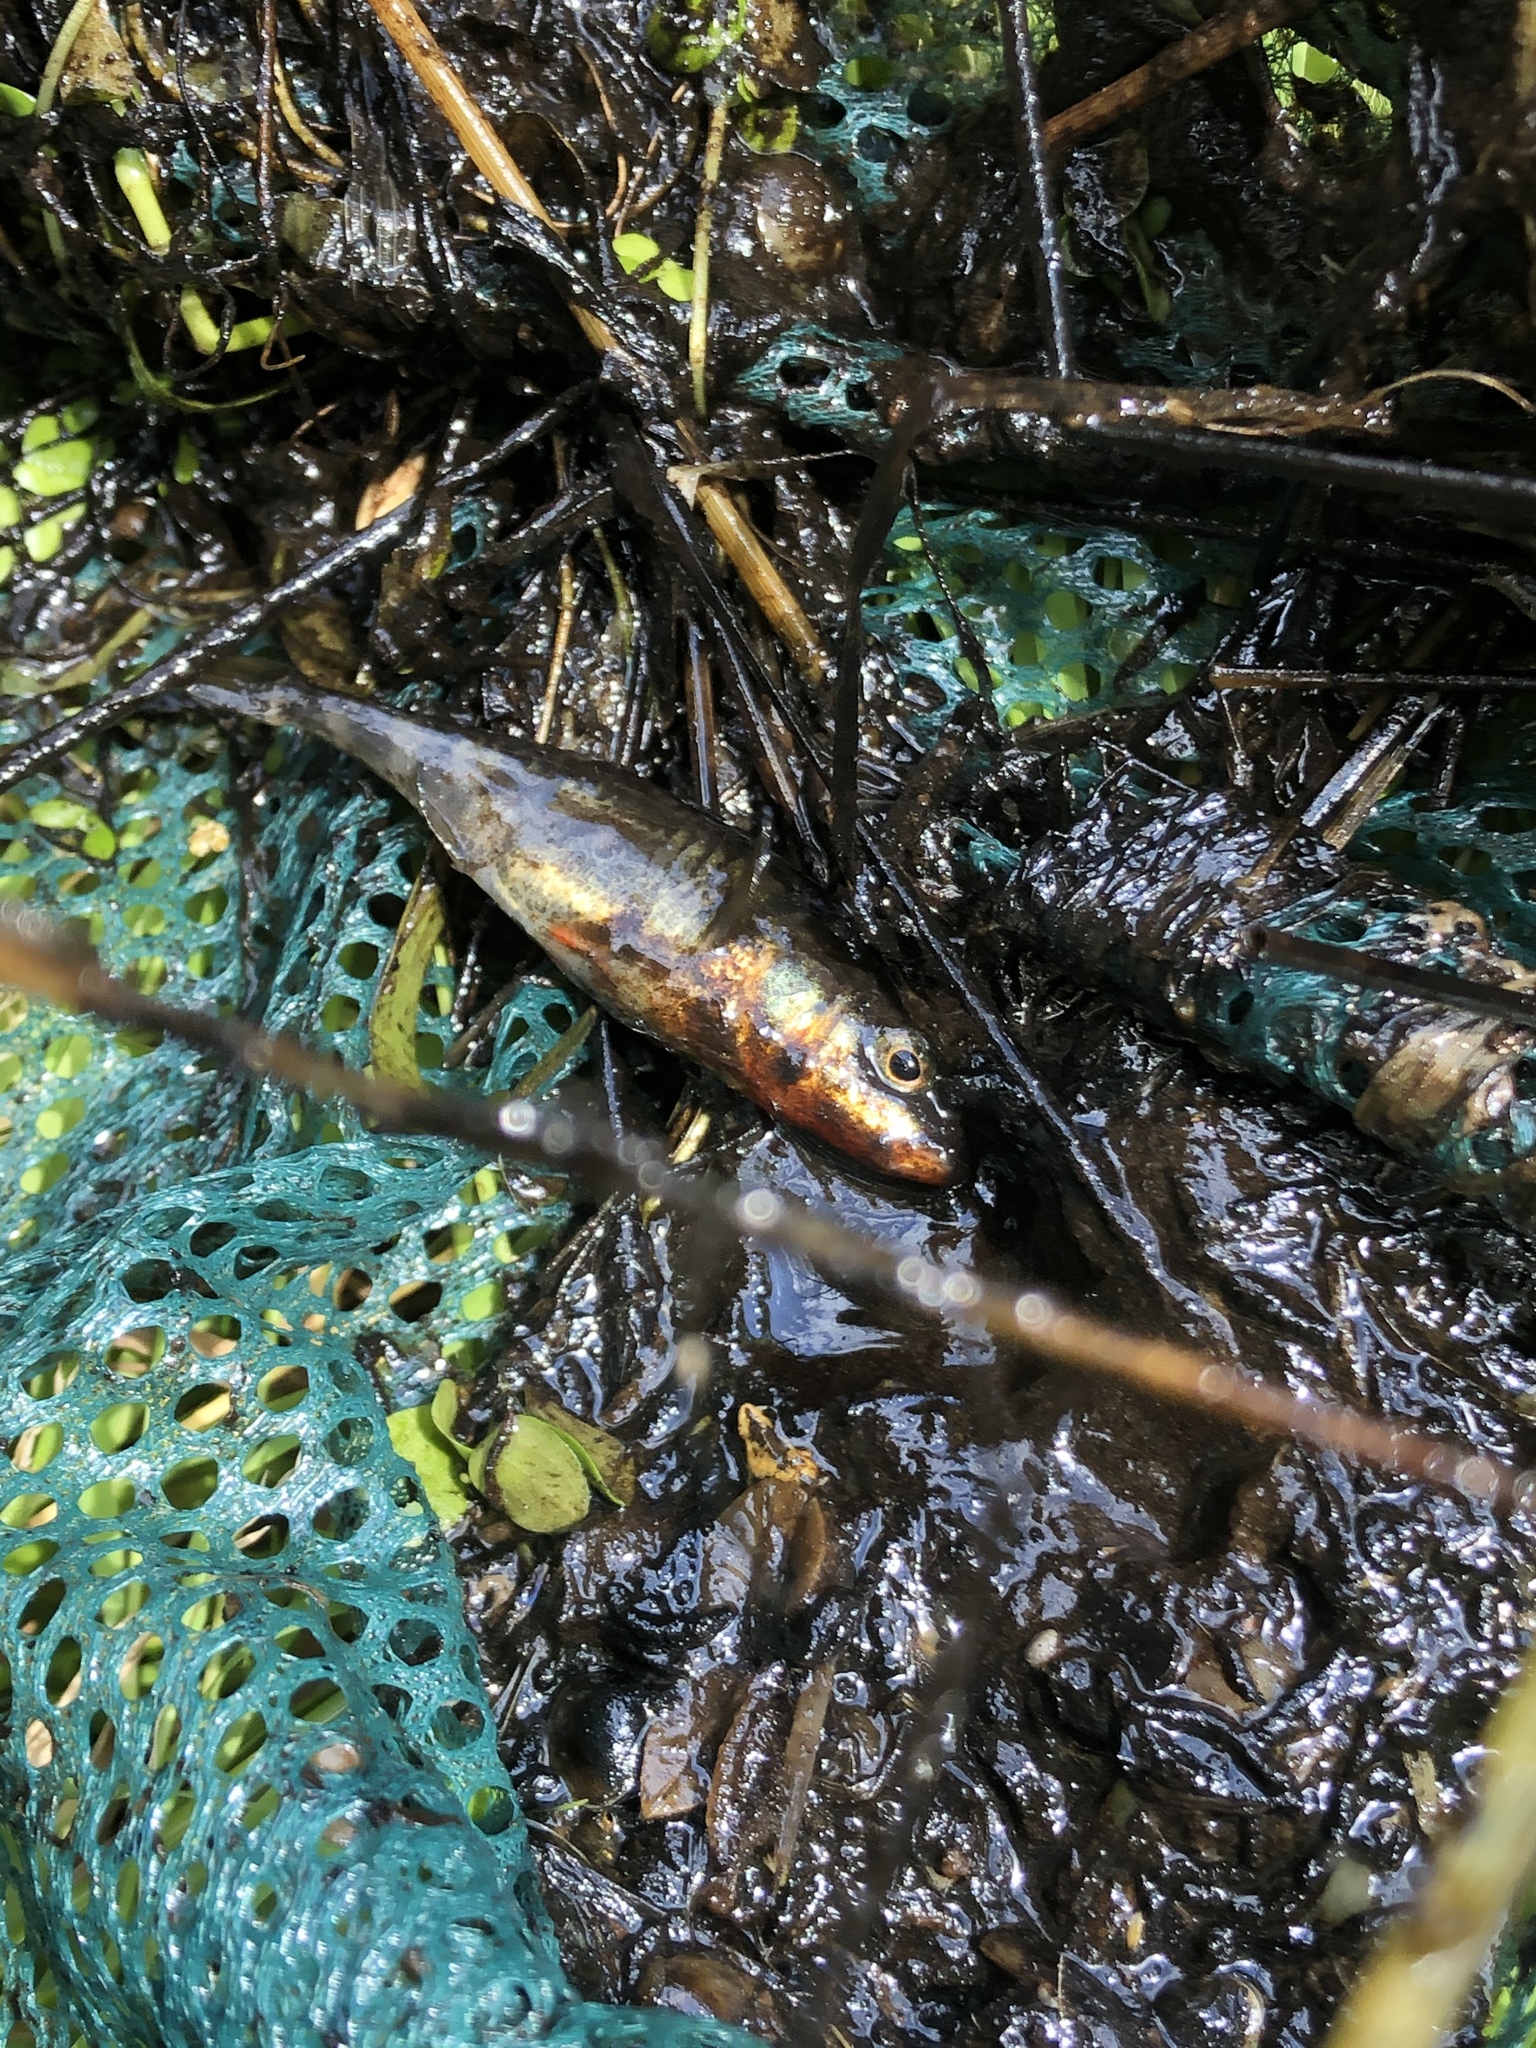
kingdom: Animalia
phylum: Chordata
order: Gasterosteiformes
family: Gasterosteidae
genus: Gasterosteus
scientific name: Gasterosteus aculeatus
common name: Three-spined stickleback
